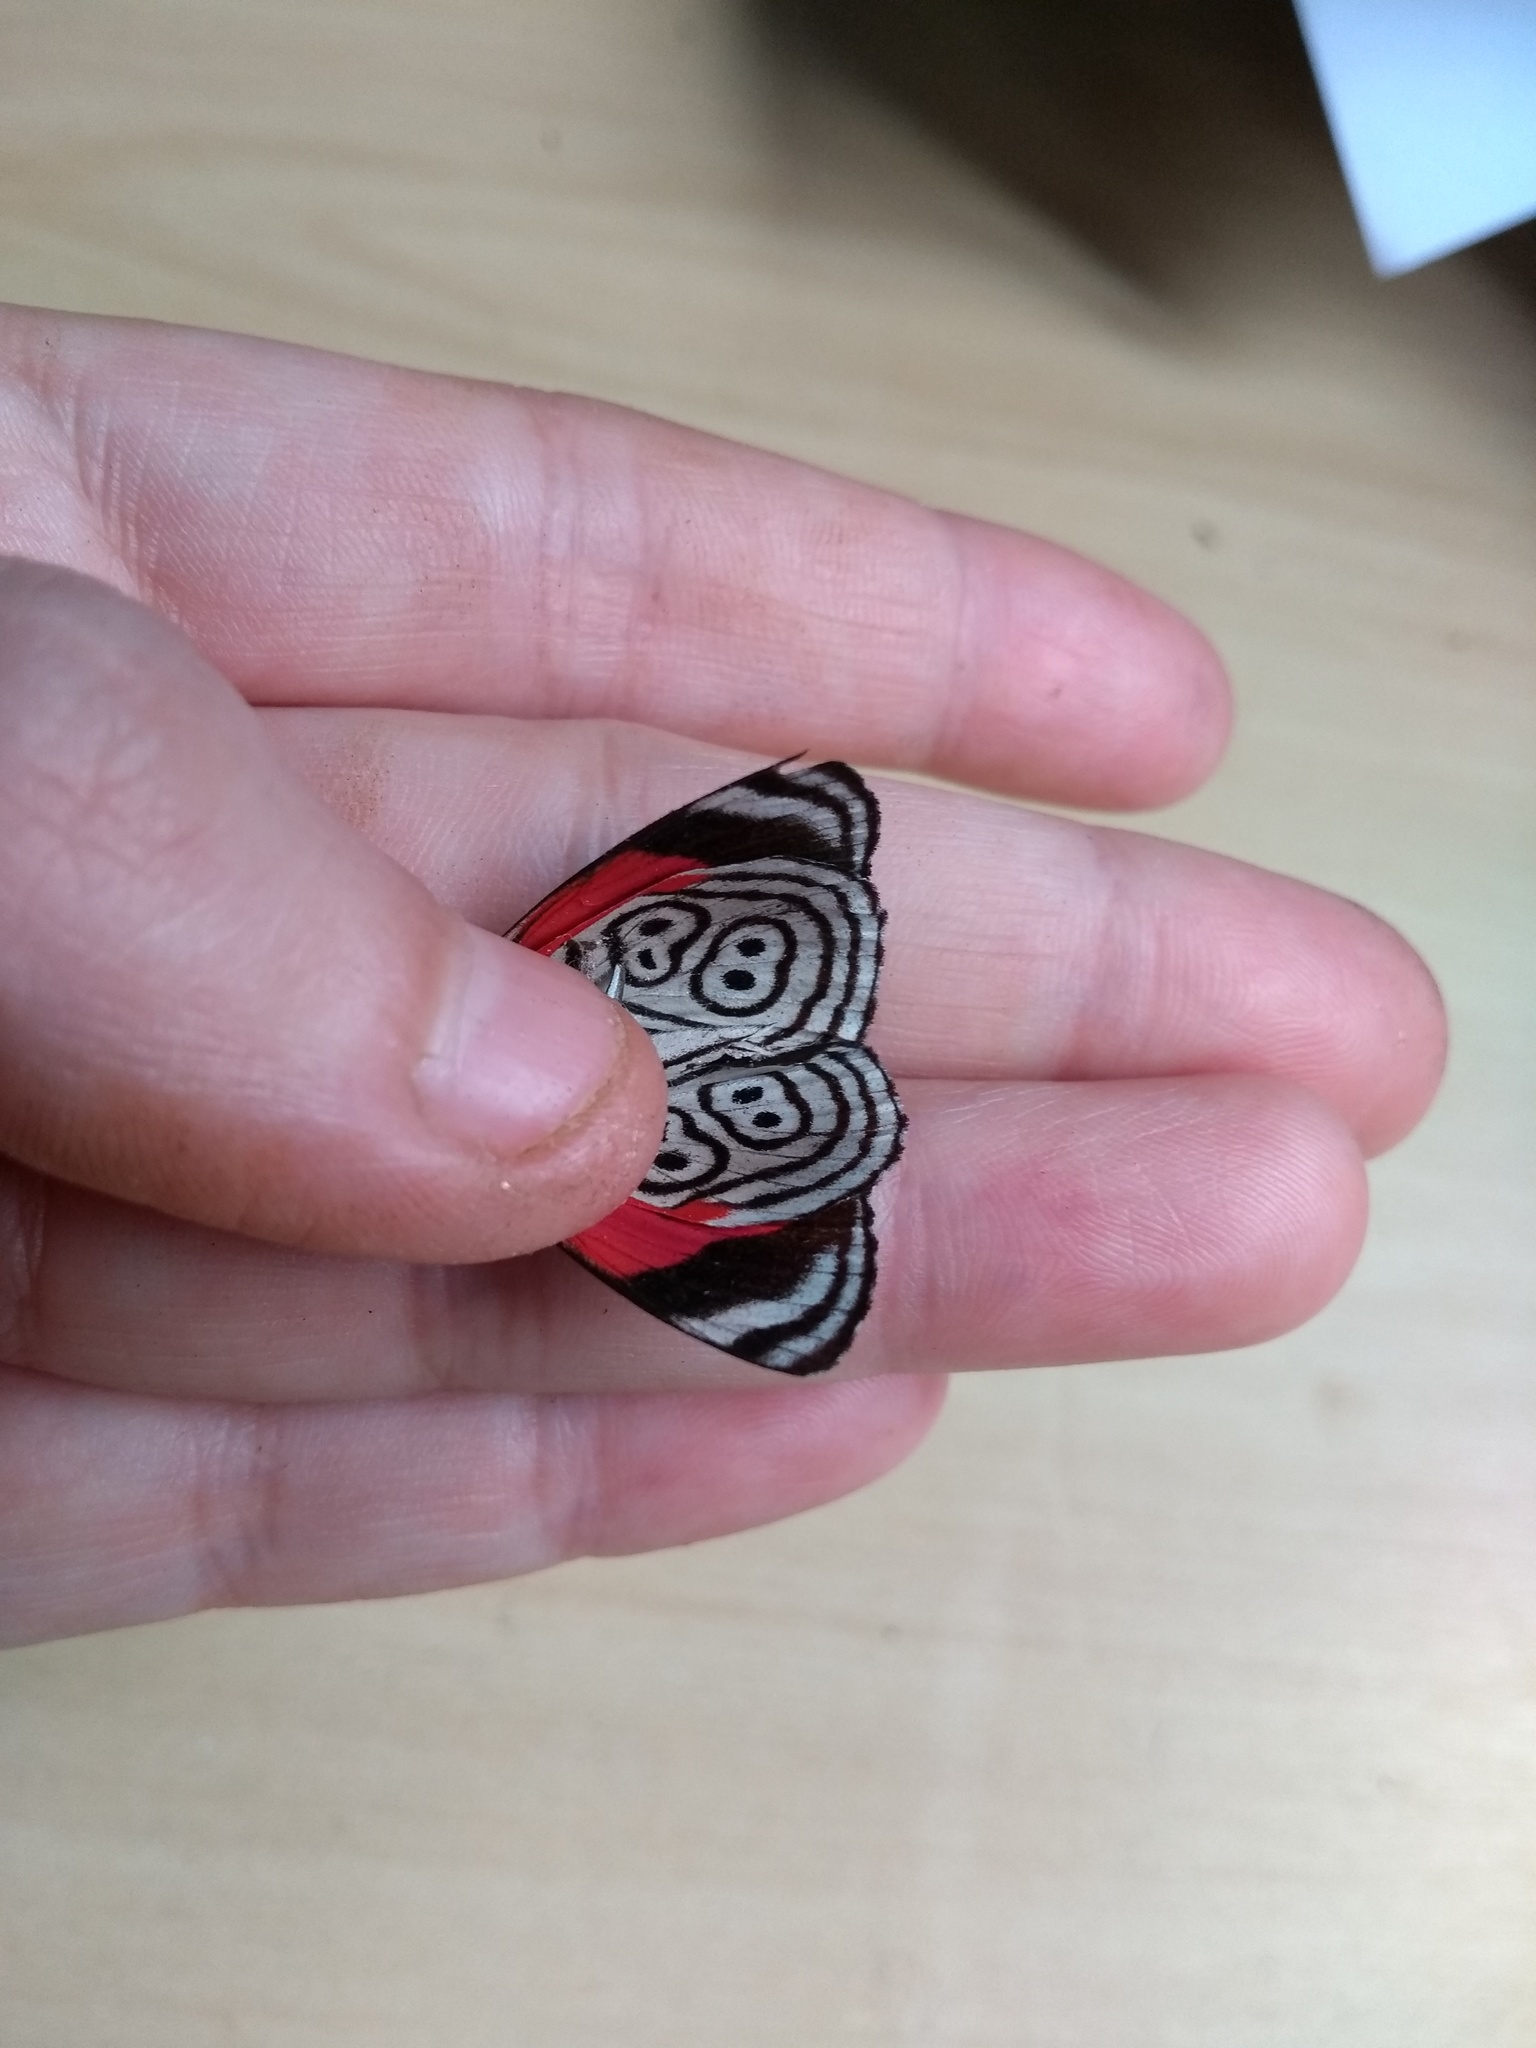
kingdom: Animalia
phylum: Arthropoda
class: Insecta
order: Lepidoptera
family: Nymphalidae
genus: Diaethria
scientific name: Diaethria clymena
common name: Widespread eighty-eight
